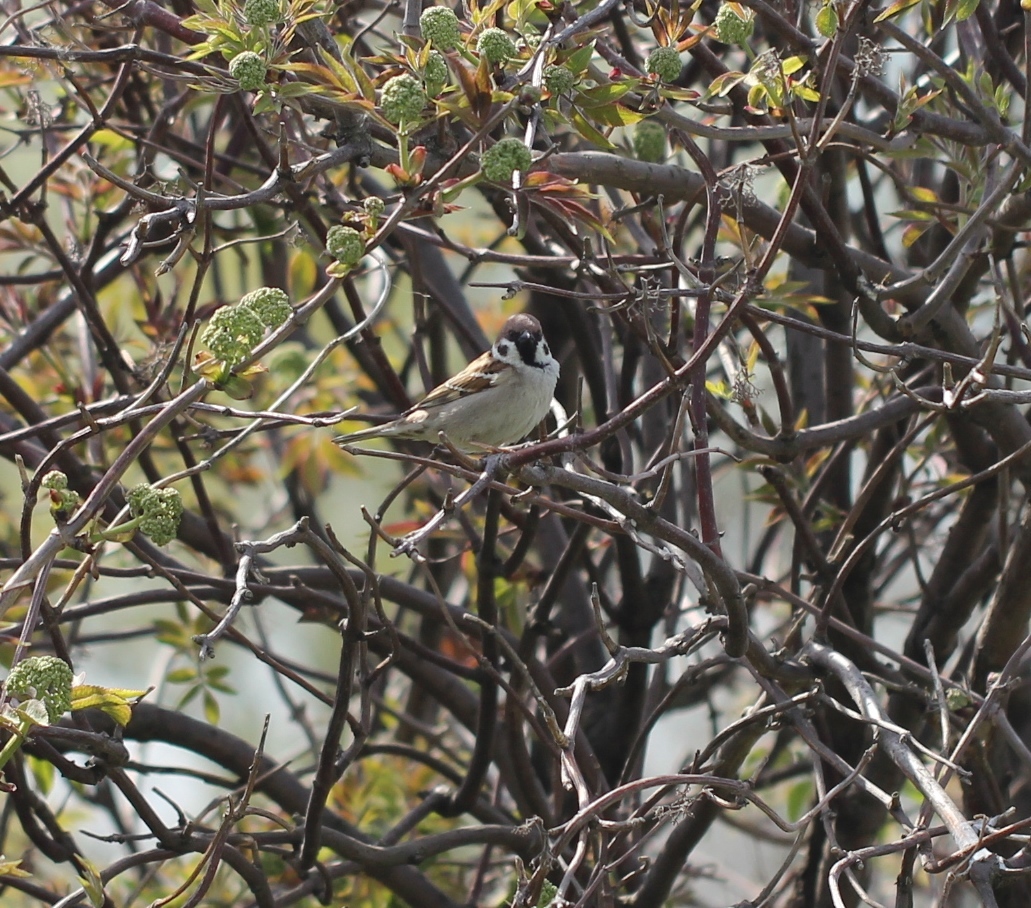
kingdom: Animalia
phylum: Chordata
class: Aves
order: Passeriformes
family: Passeridae
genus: Passer
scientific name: Passer montanus
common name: Eurasian tree sparrow
